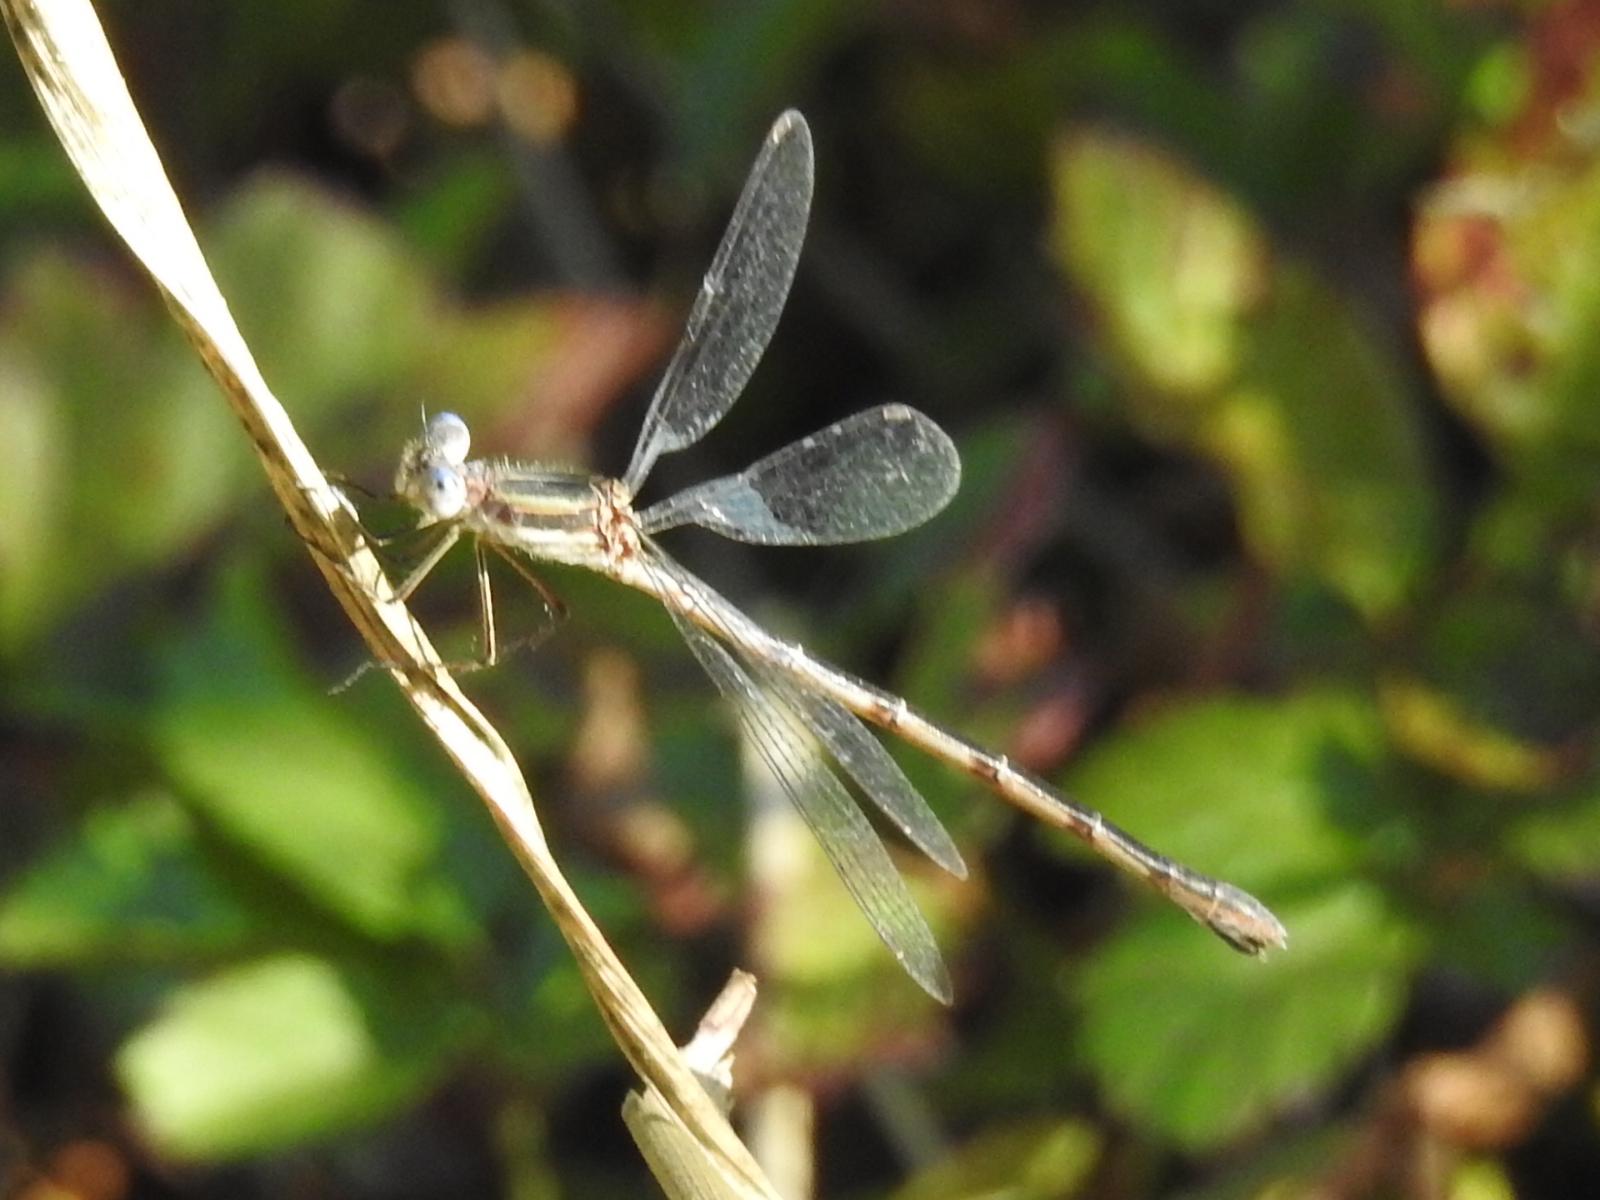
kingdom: Animalia
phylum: Arthropoda
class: Insecta
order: Odonata
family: Lestidae
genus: Lestes
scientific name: Lestes australis
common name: Southern spreadwing
